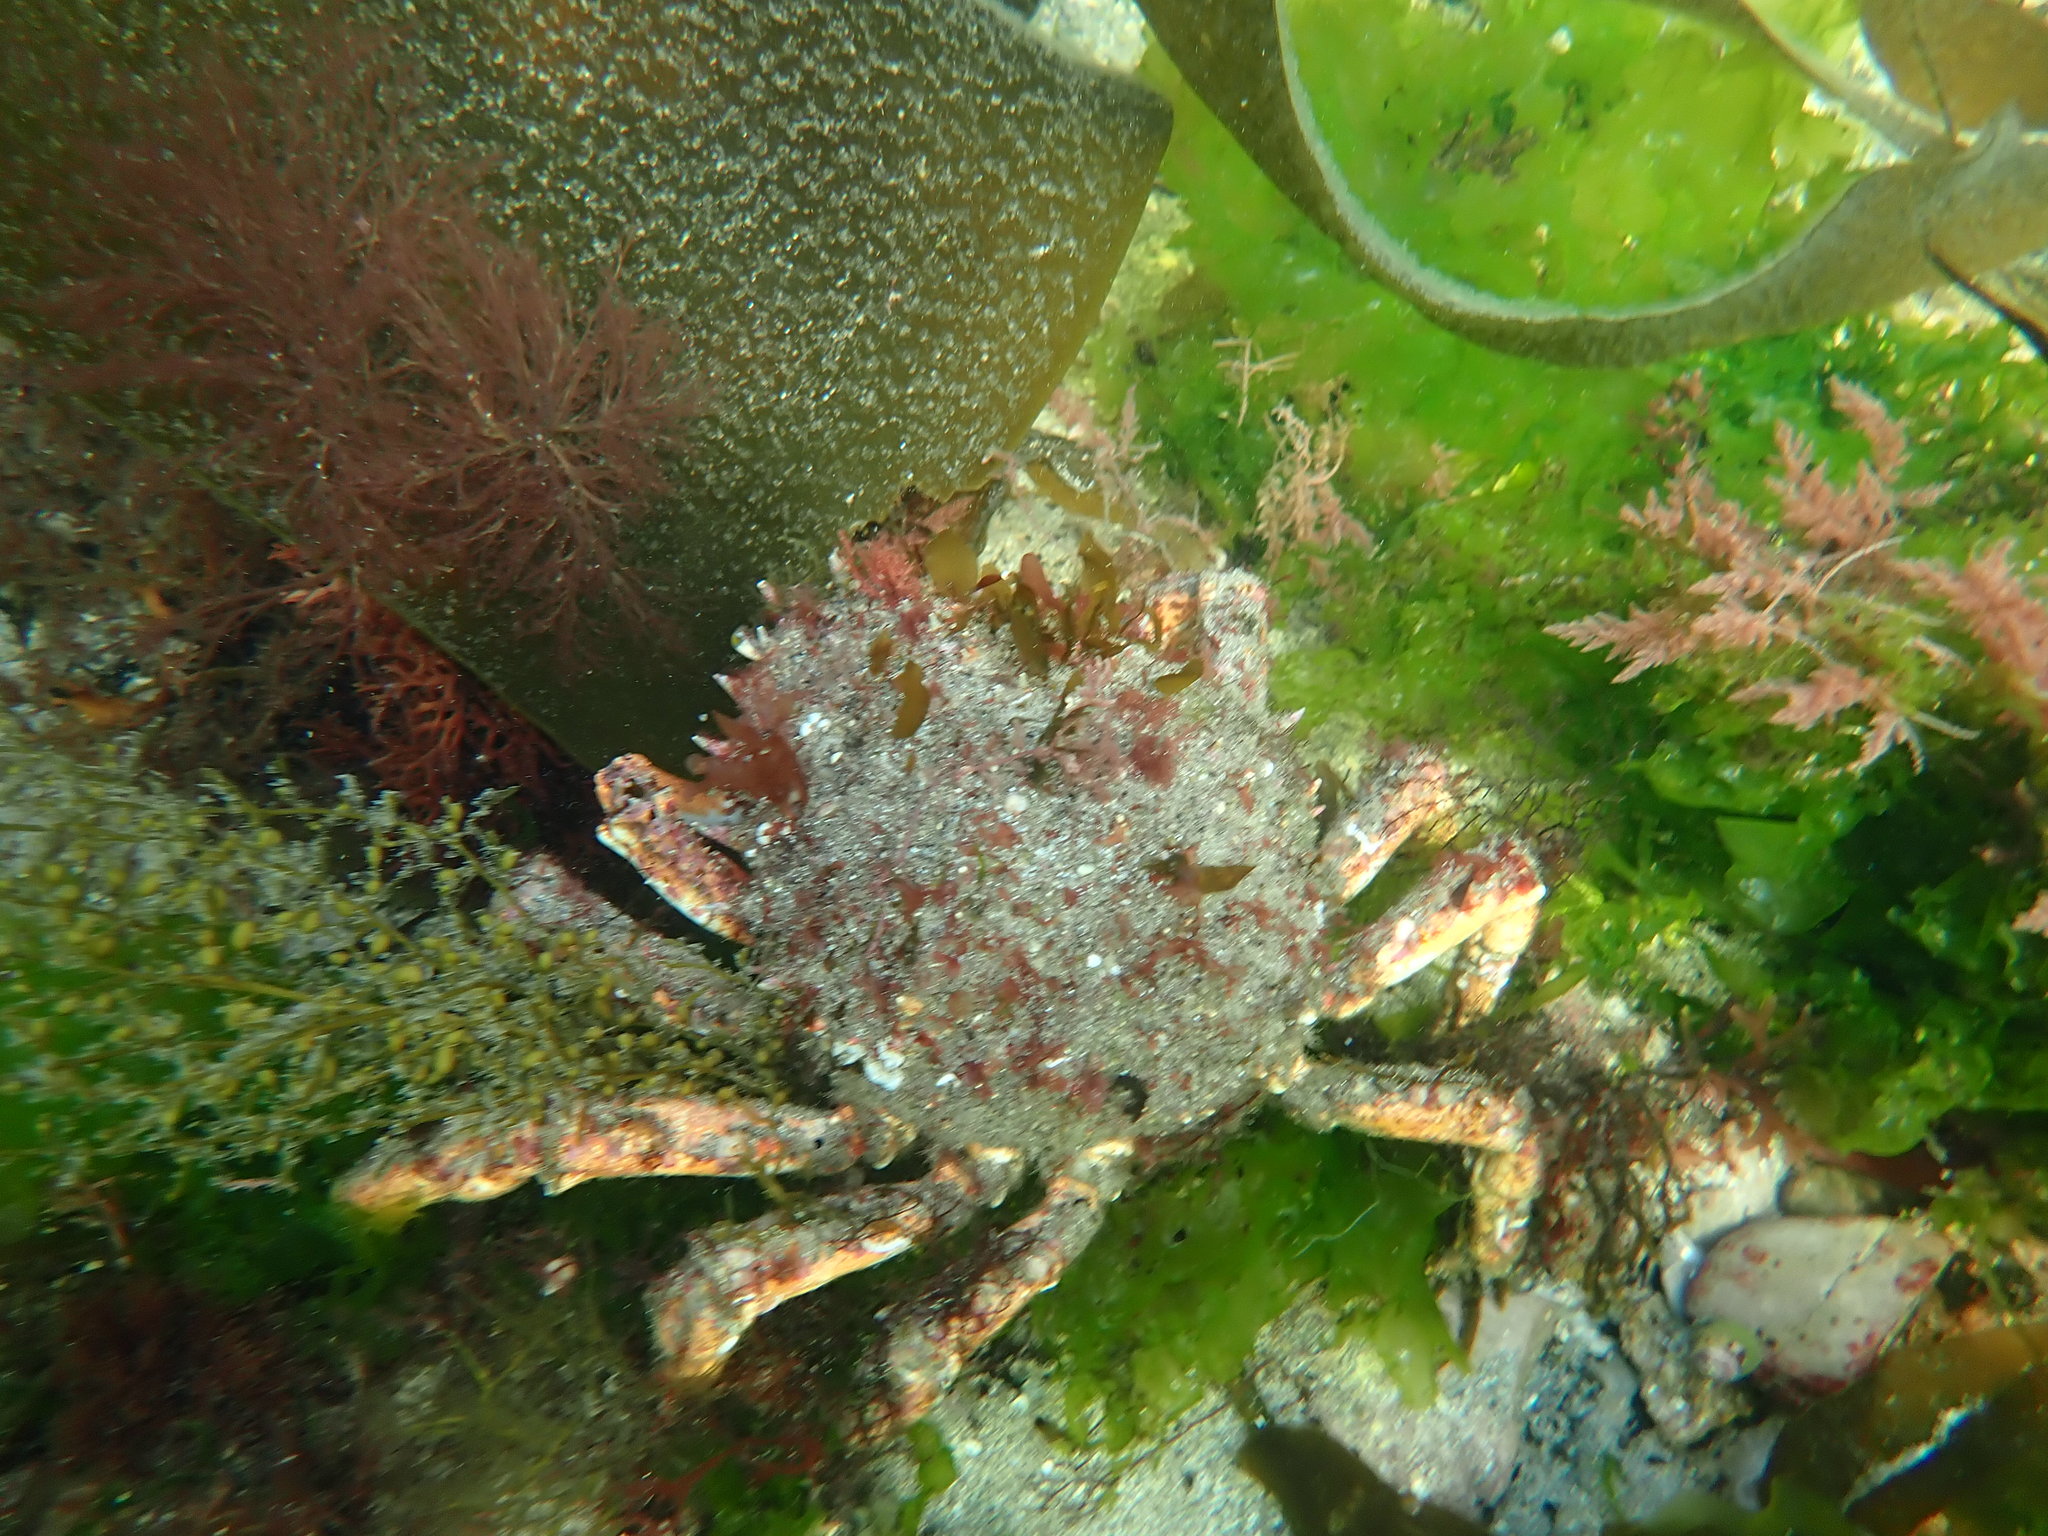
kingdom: Animalia
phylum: Arthropoda
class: Malacostraca
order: Decapoda
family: Majidae
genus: Maja
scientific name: Maja brachydactyla
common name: Common spider crab
